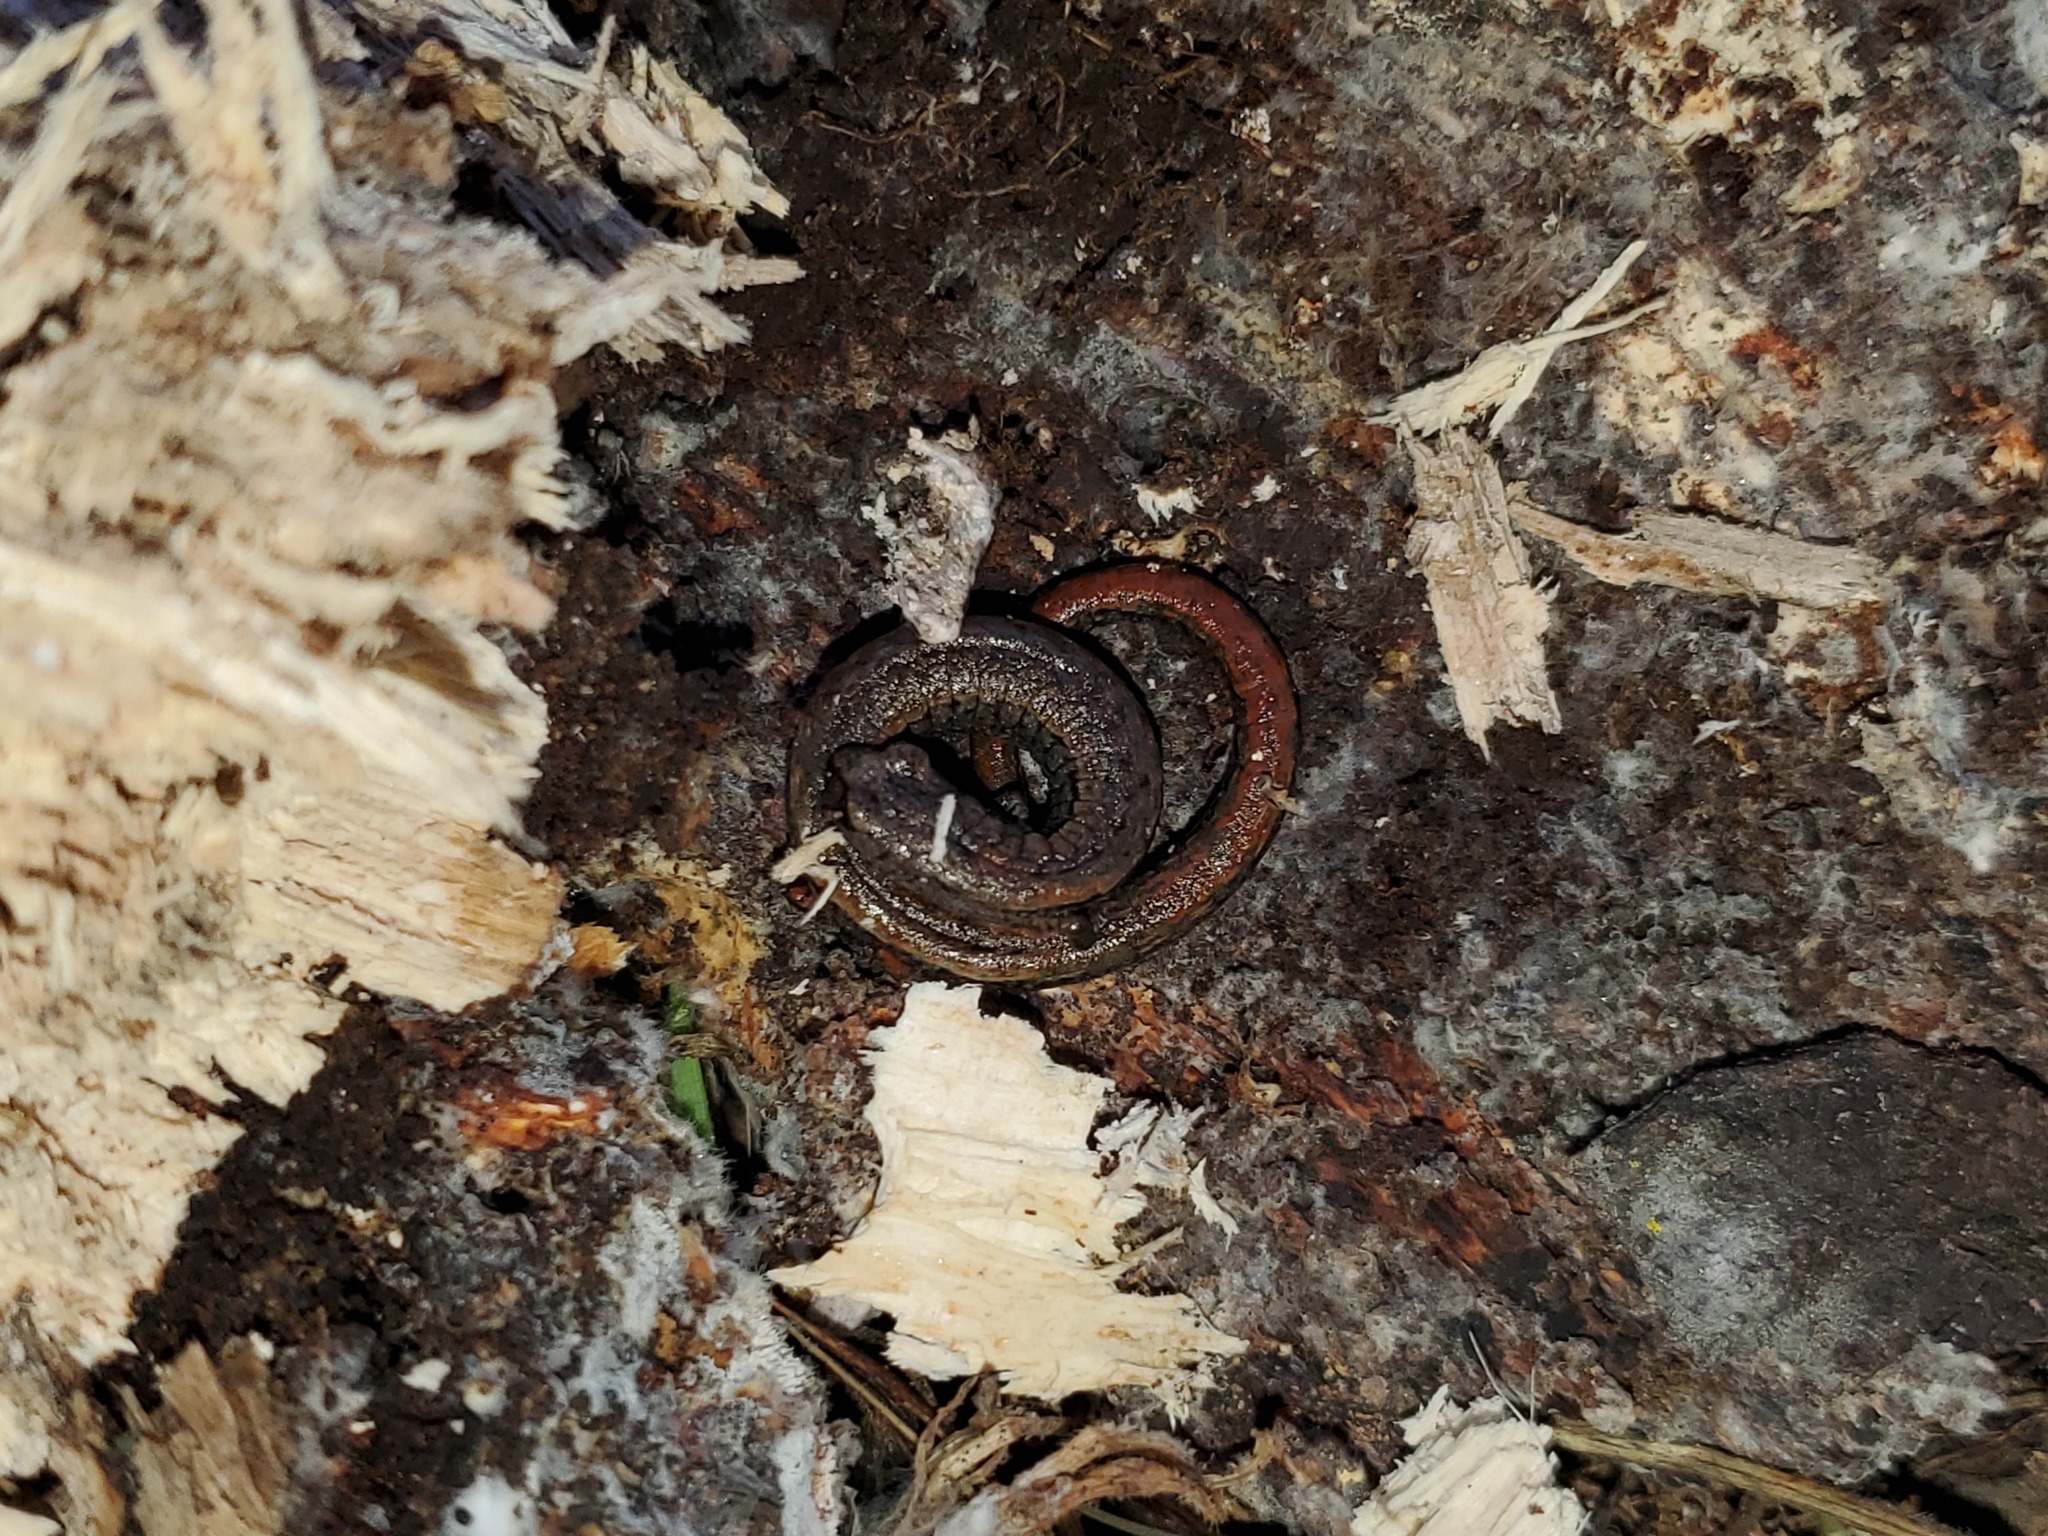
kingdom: Animalia
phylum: Chordata
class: Amphibia
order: Caudata
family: Plethodontidae
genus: Batrachoseps
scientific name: Batrachoseps attenuatus
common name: California slender salamander
